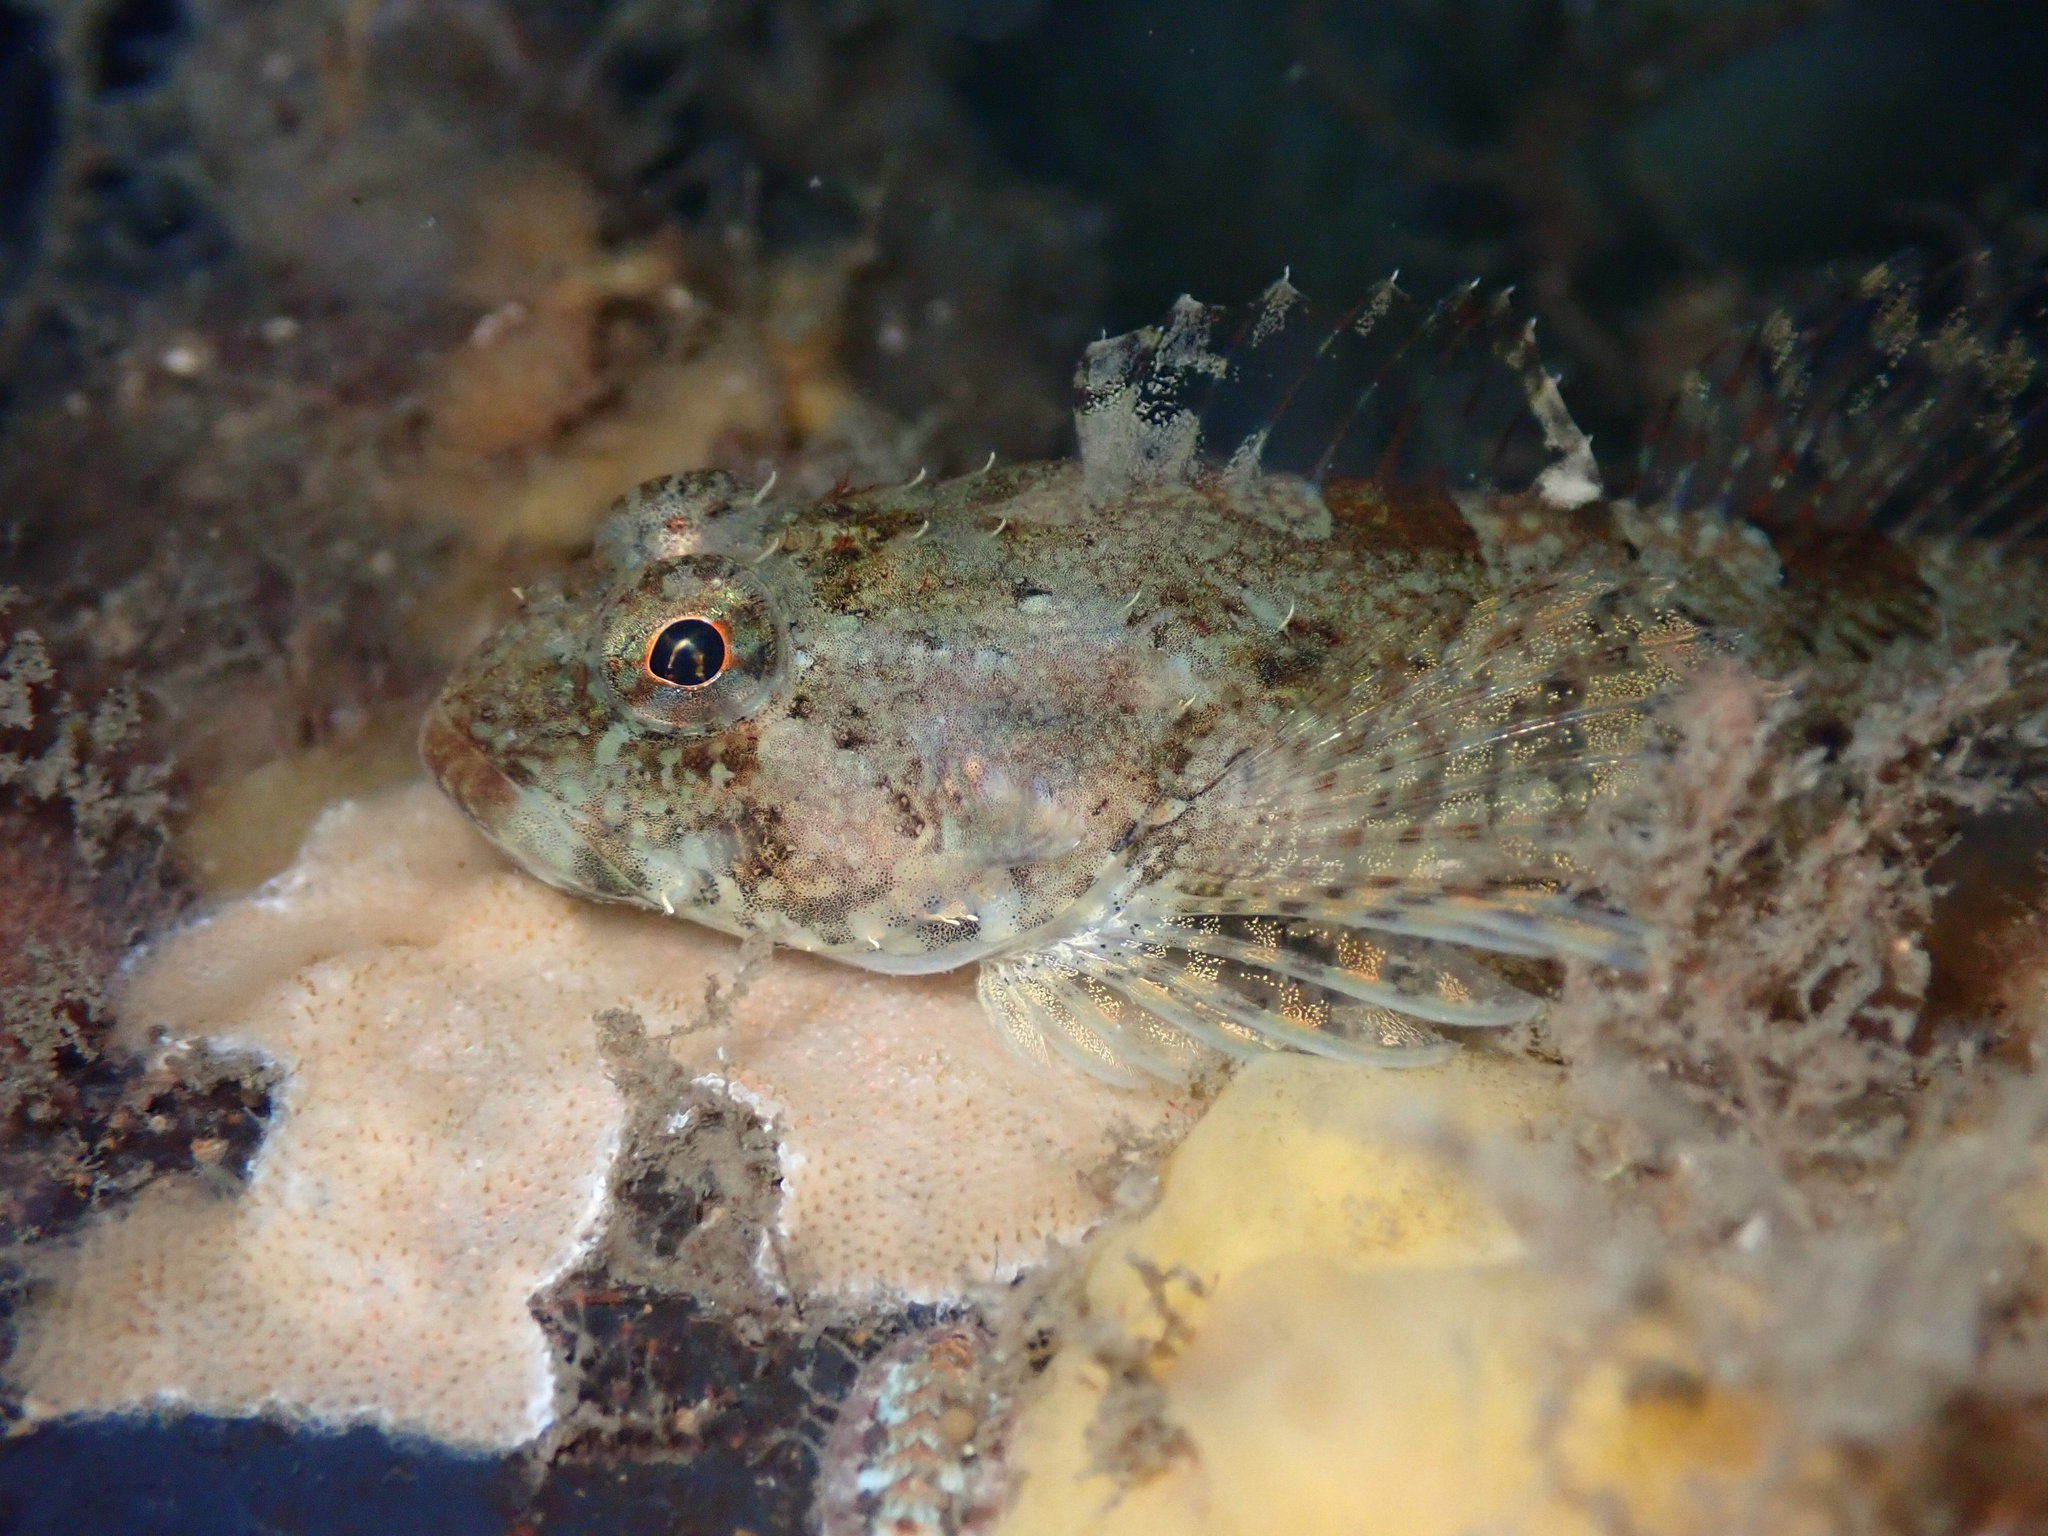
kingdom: Animalia
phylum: Chordata
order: Scorpaeniformes
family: Cottidae
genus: Artedius
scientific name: Artedius fenestralis
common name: Padded sculpin
